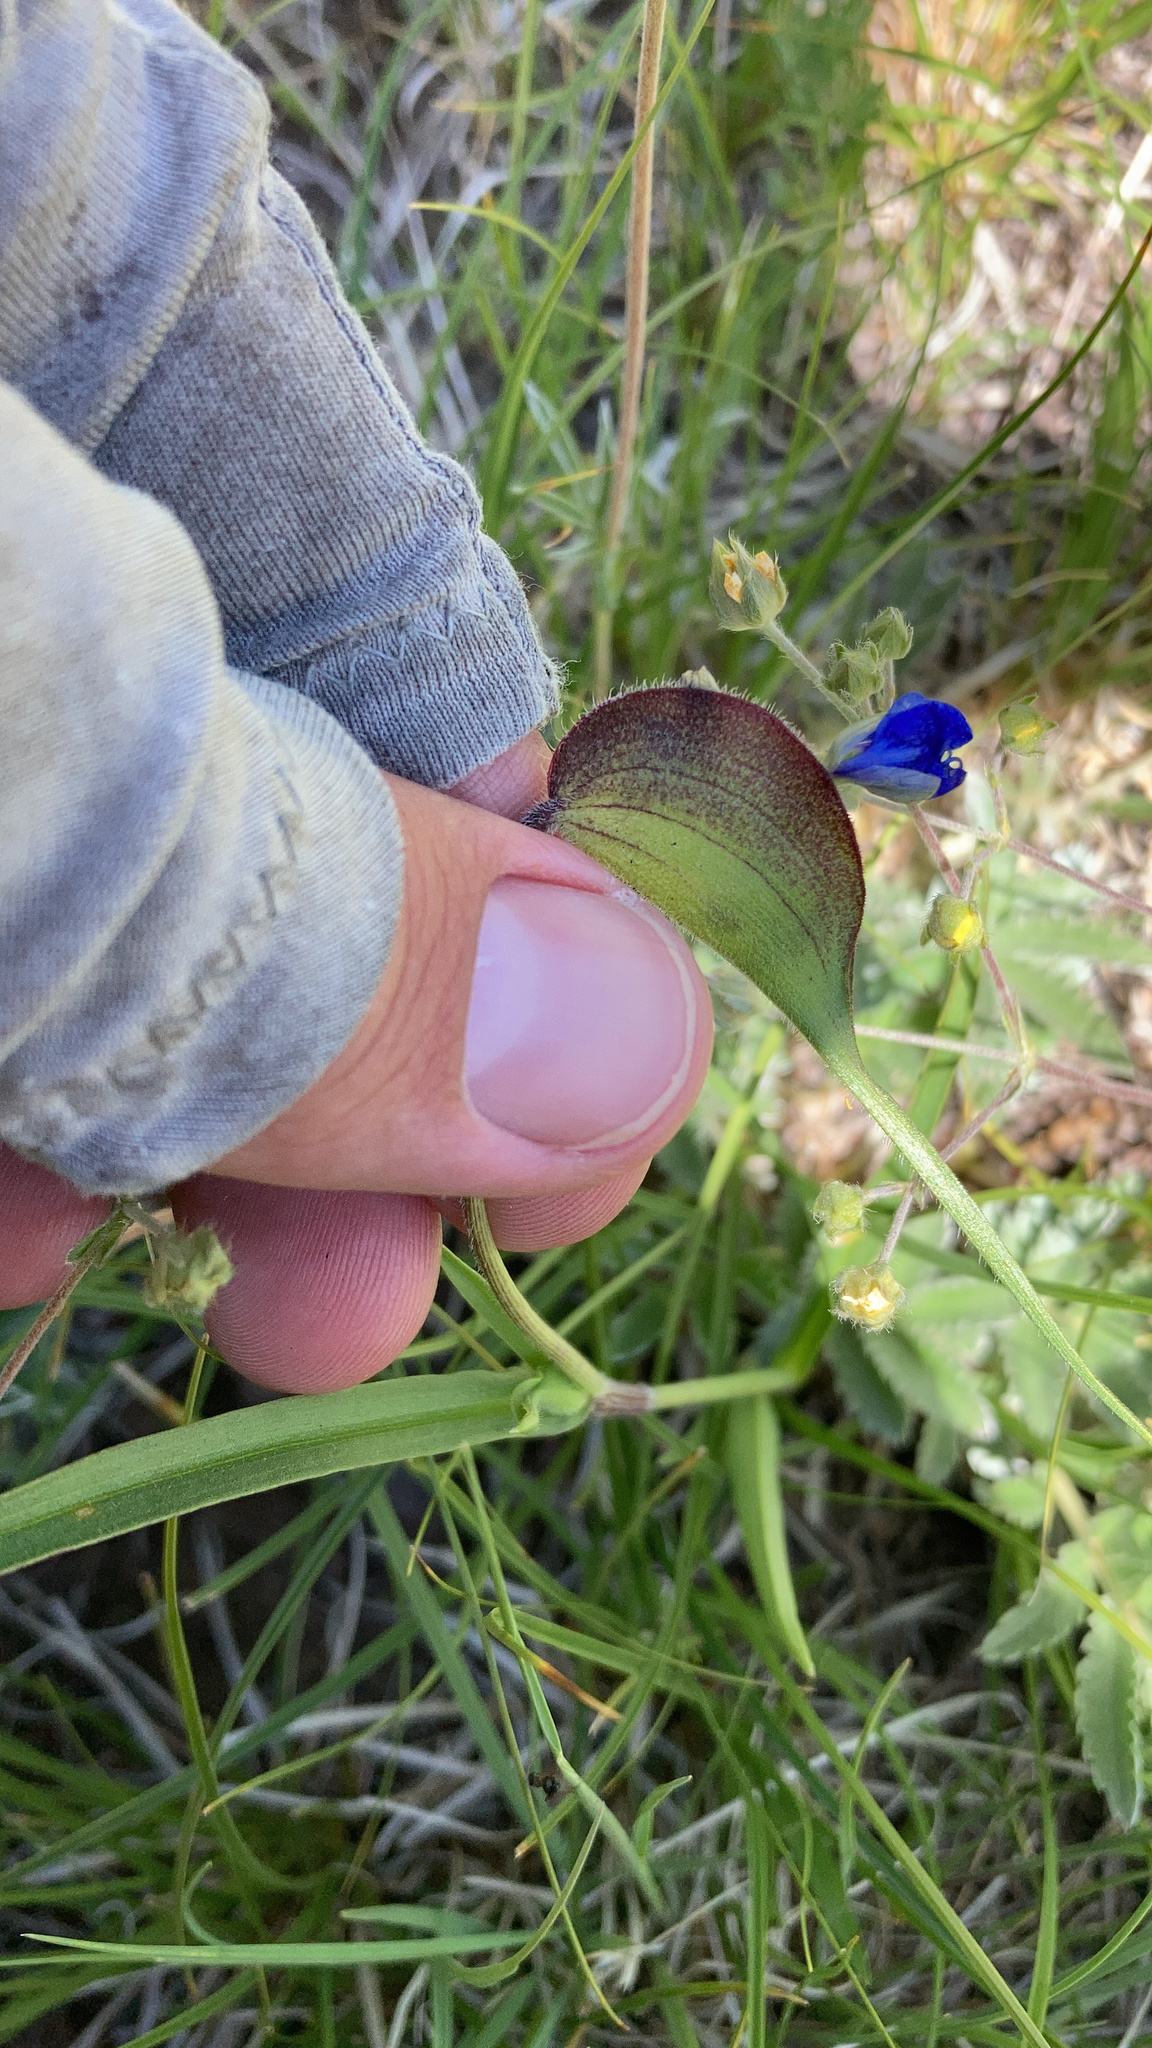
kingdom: Plantae
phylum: Tracheophyta
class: Liliopsida
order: Commelinales
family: Commelinaceae
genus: Commelina
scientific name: Commelina dianthifolia
